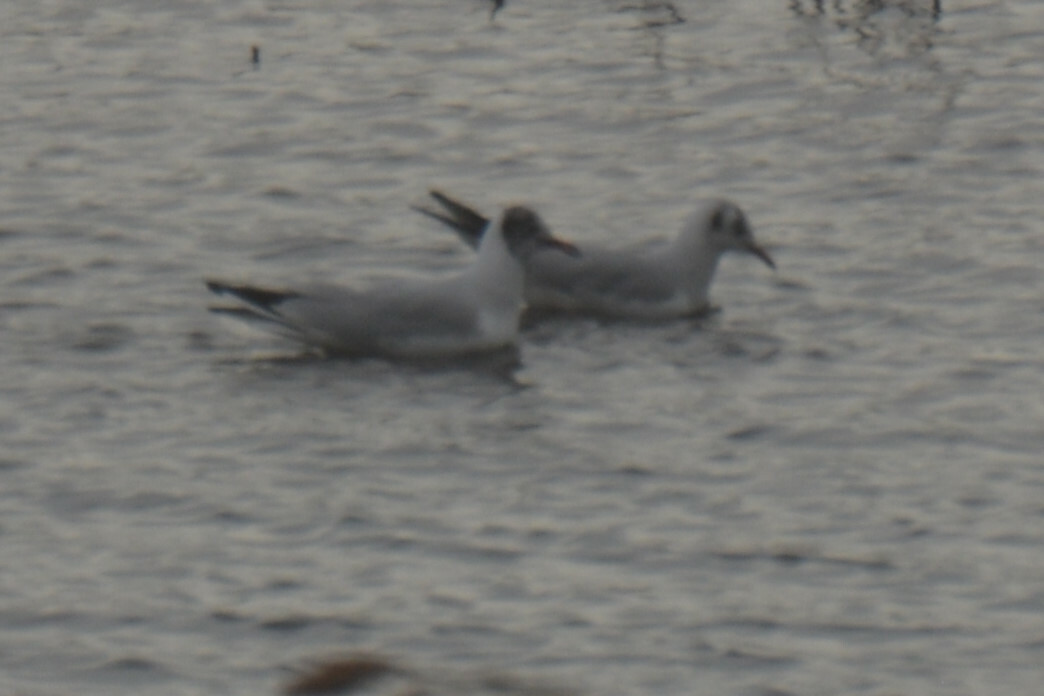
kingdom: Animalia
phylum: Chordata
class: Aves
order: Charadriiformes
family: Laridae
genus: Chroicocephalus
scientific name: Chroicocephalus ridibundus
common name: Black-headed gull
